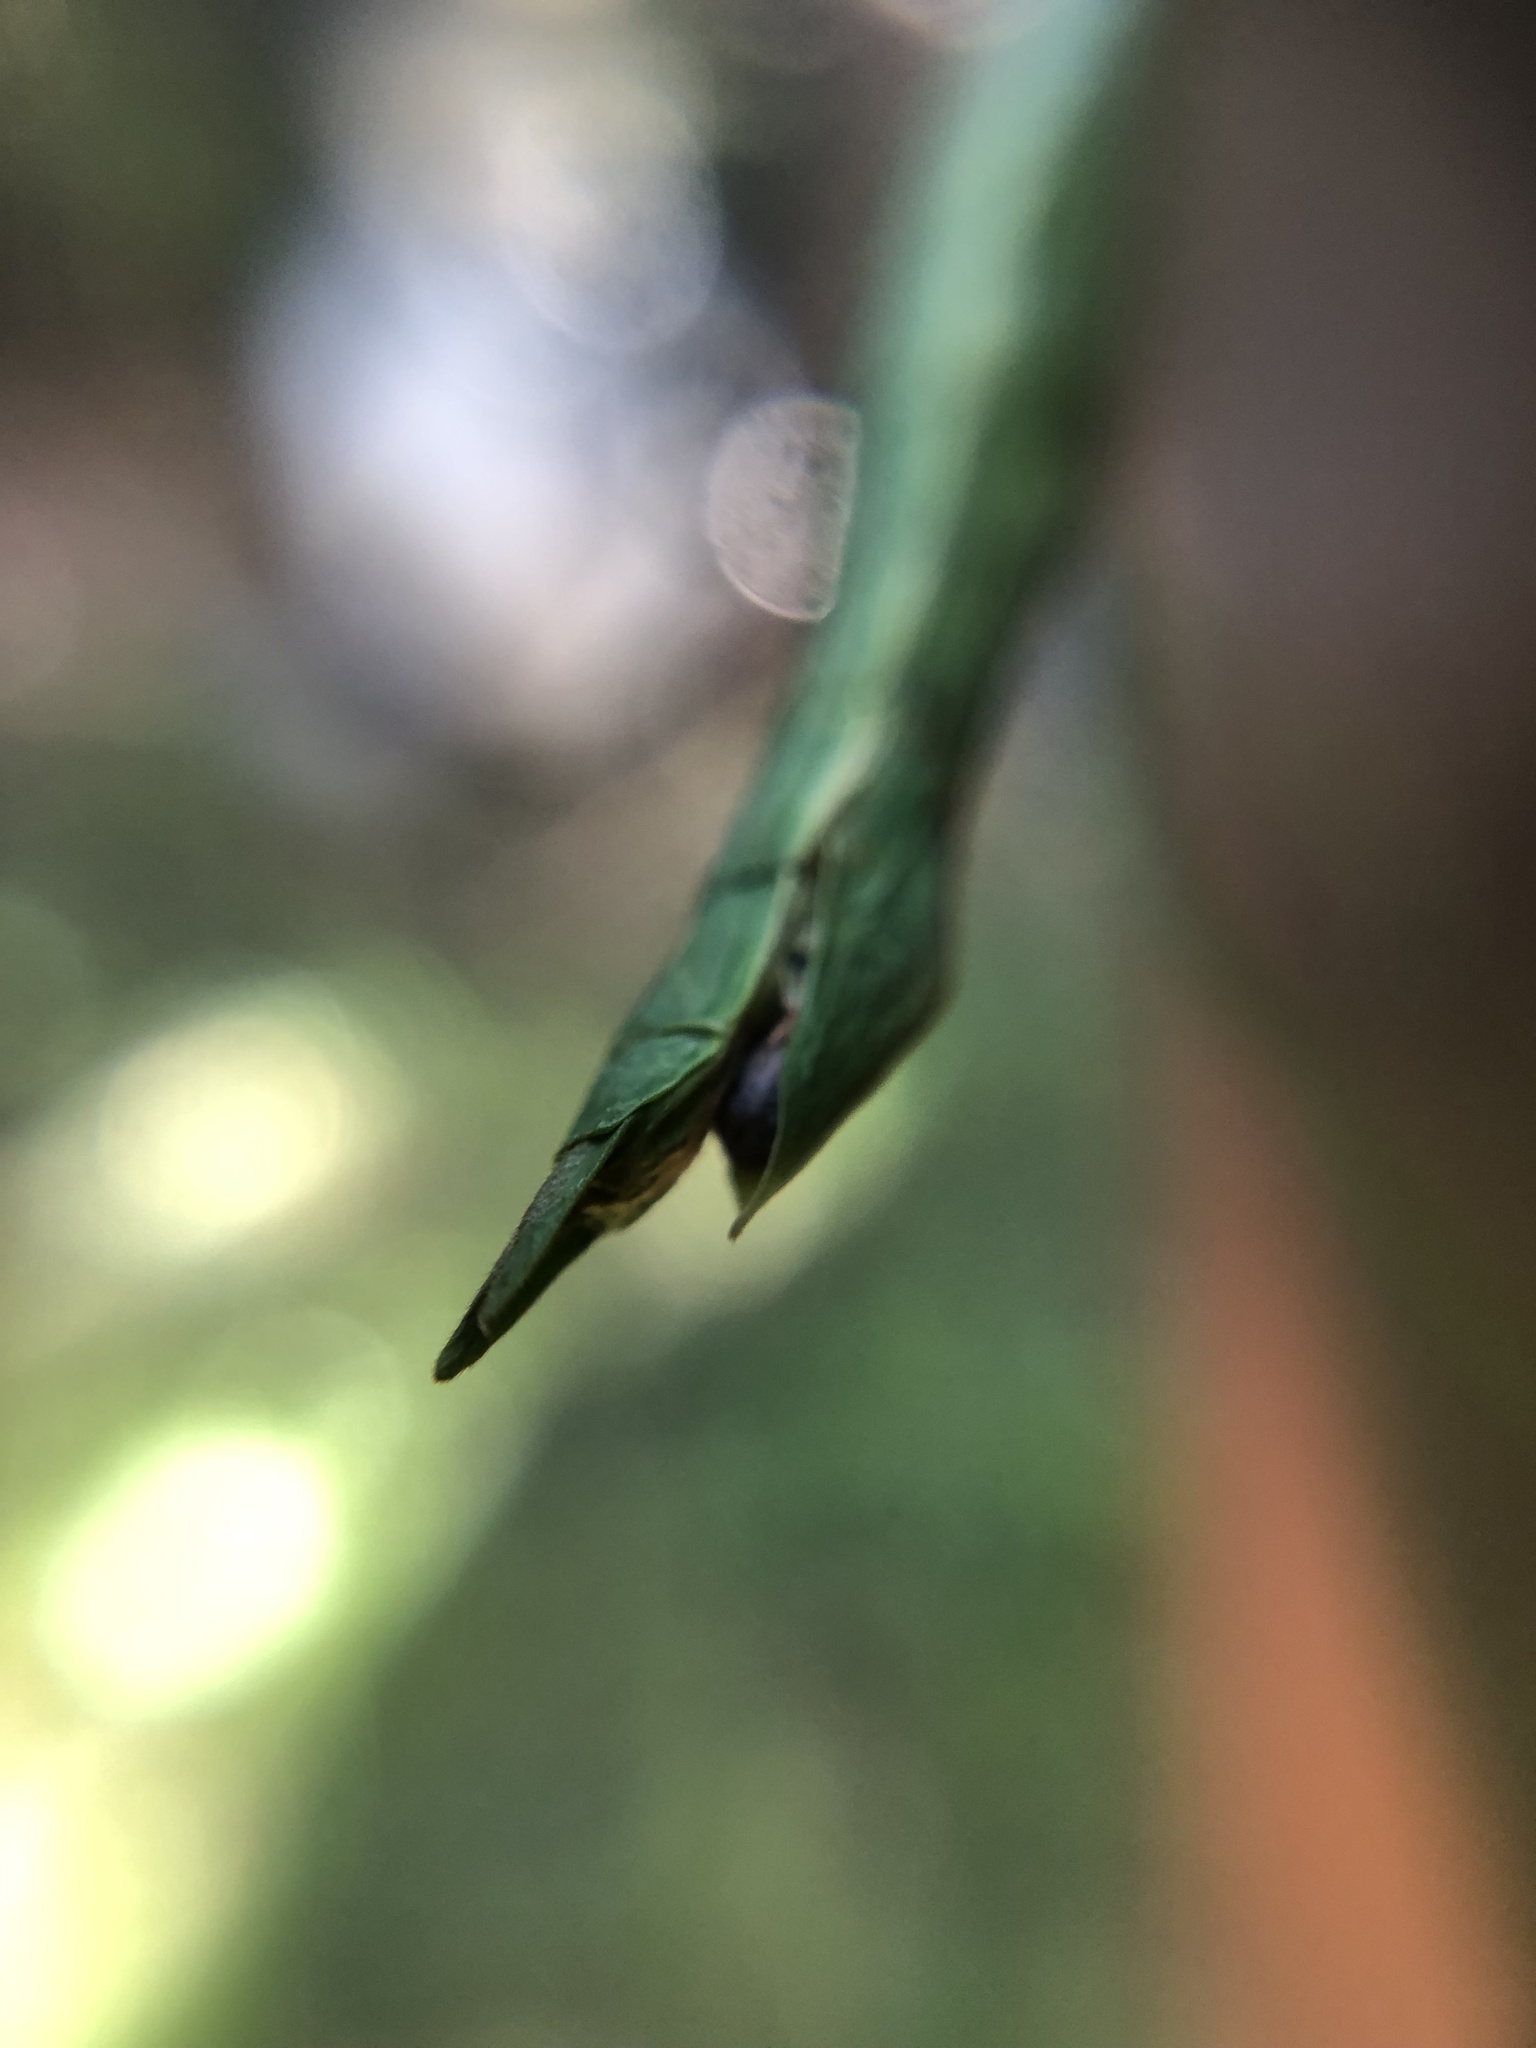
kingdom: Animalia
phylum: Arthropoda
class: Insecta
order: Phasmida
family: Phasmatidae
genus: Clitarchus
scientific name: Clitarchus hookeri
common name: Smooth stick insect
